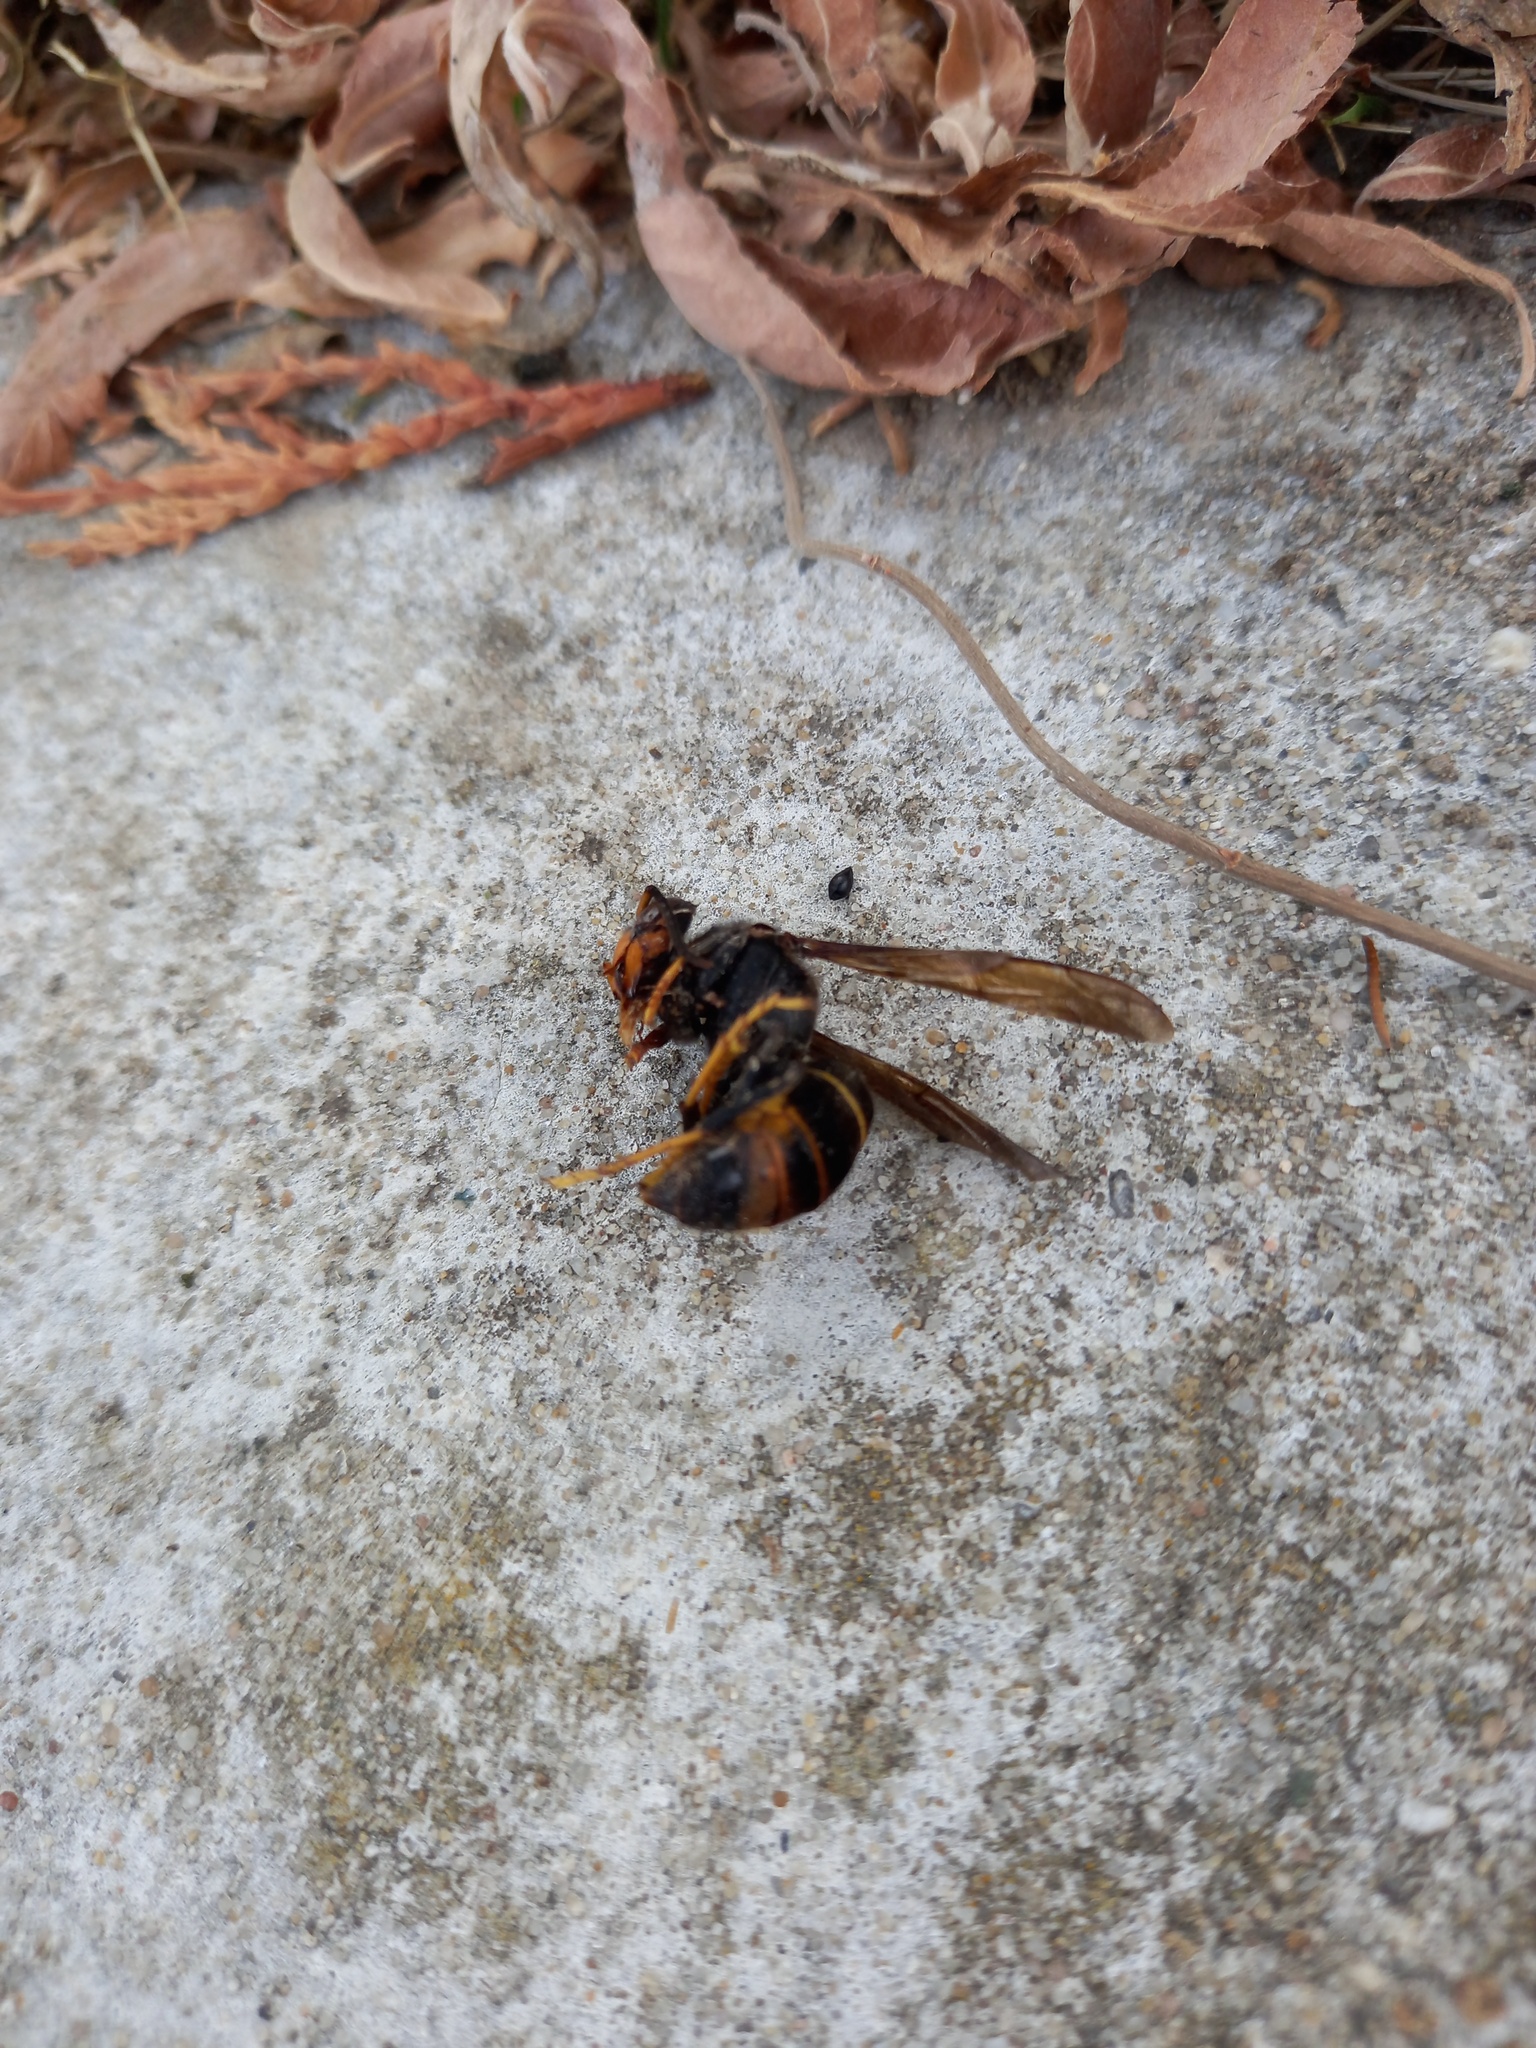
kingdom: Animalia
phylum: Arthropoda
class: Insecta
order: Hymenoptera
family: Vespidae
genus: Vespa
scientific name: Vespa velutina
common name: Asian hornet
